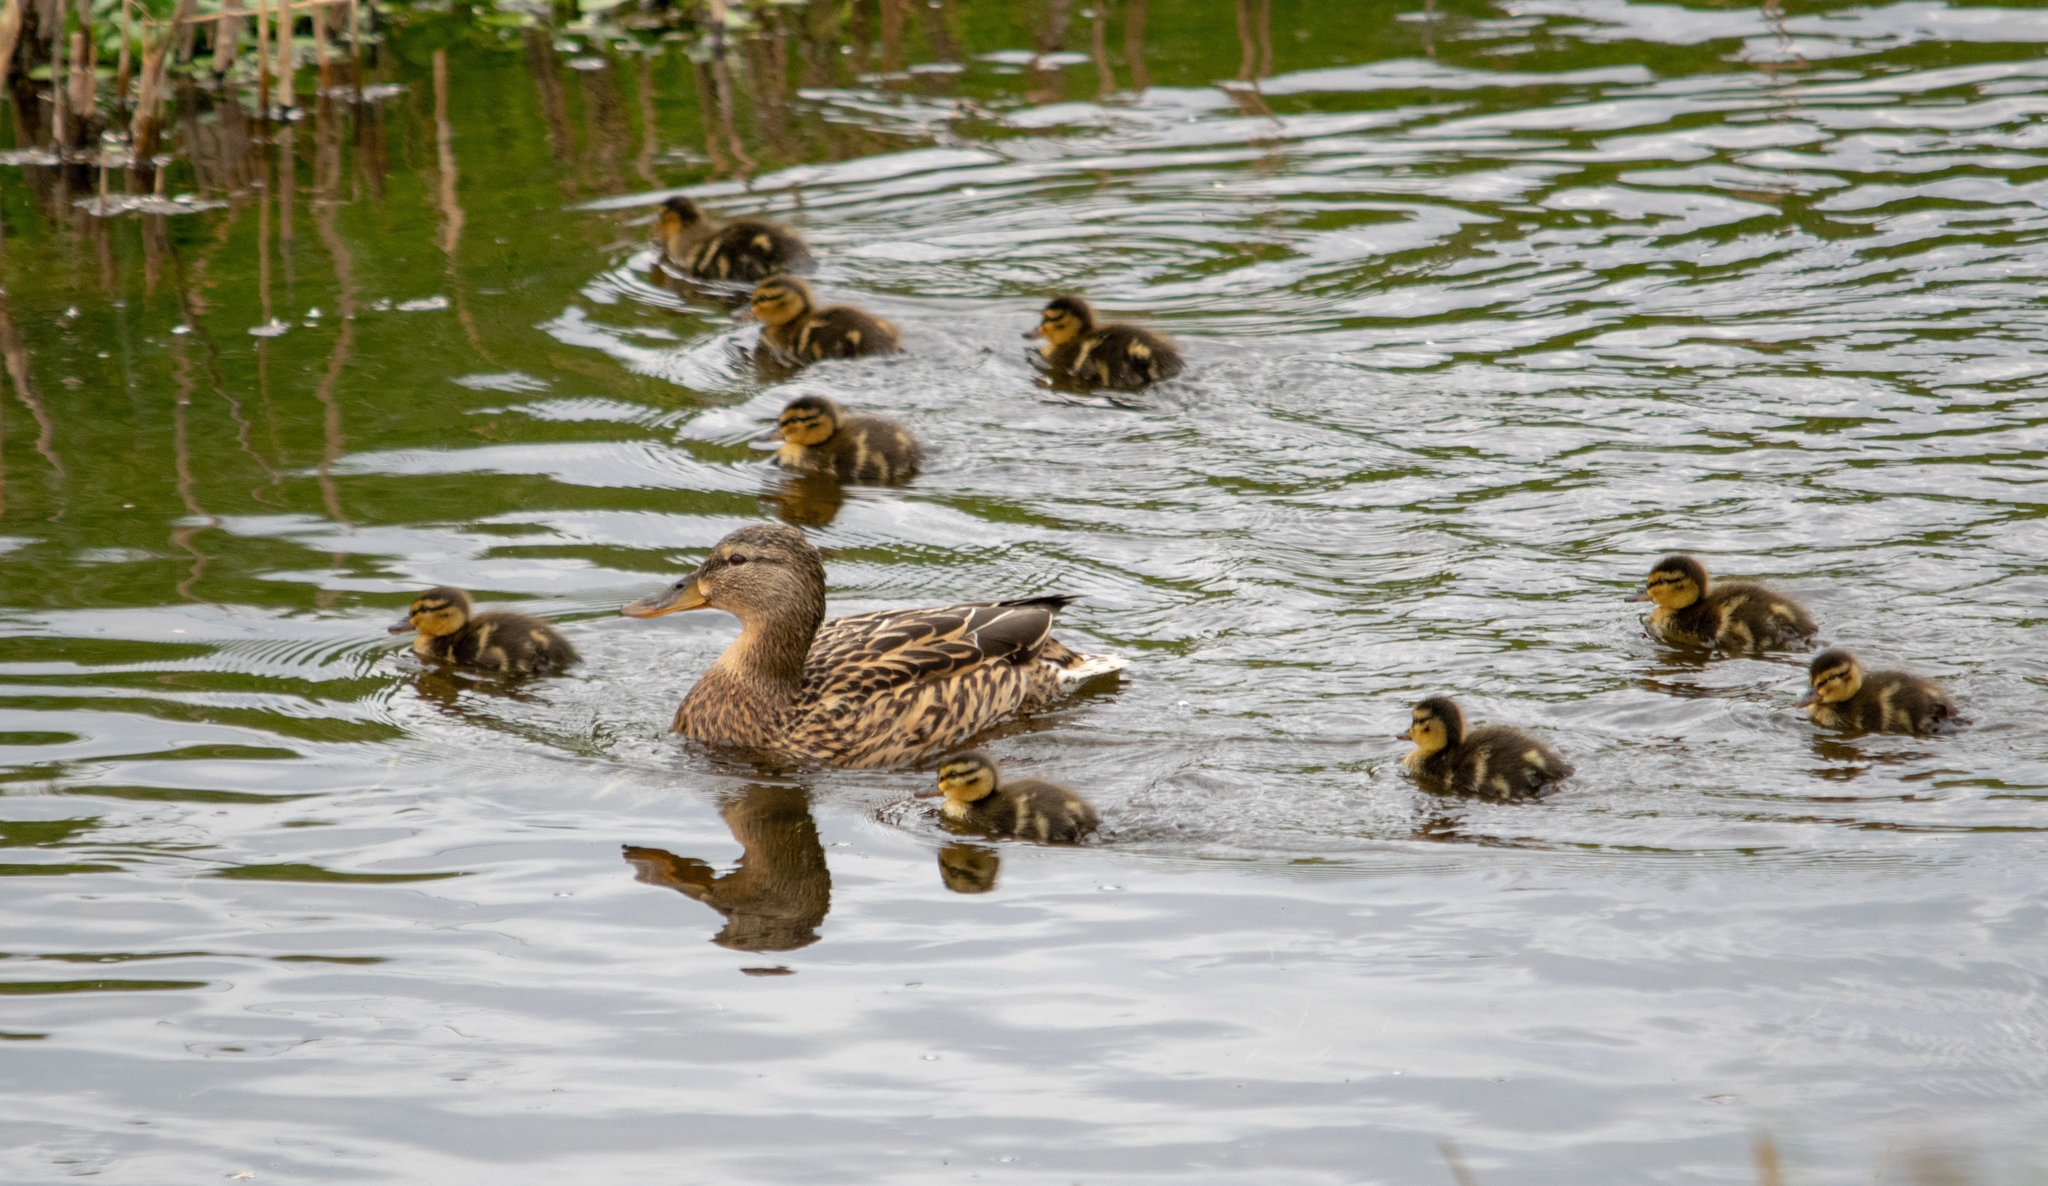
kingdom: Animalia
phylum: Chordata
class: Aves
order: Anseriformes
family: Anatidae
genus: Anas
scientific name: Anas platyrhynchos
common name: Mallard
